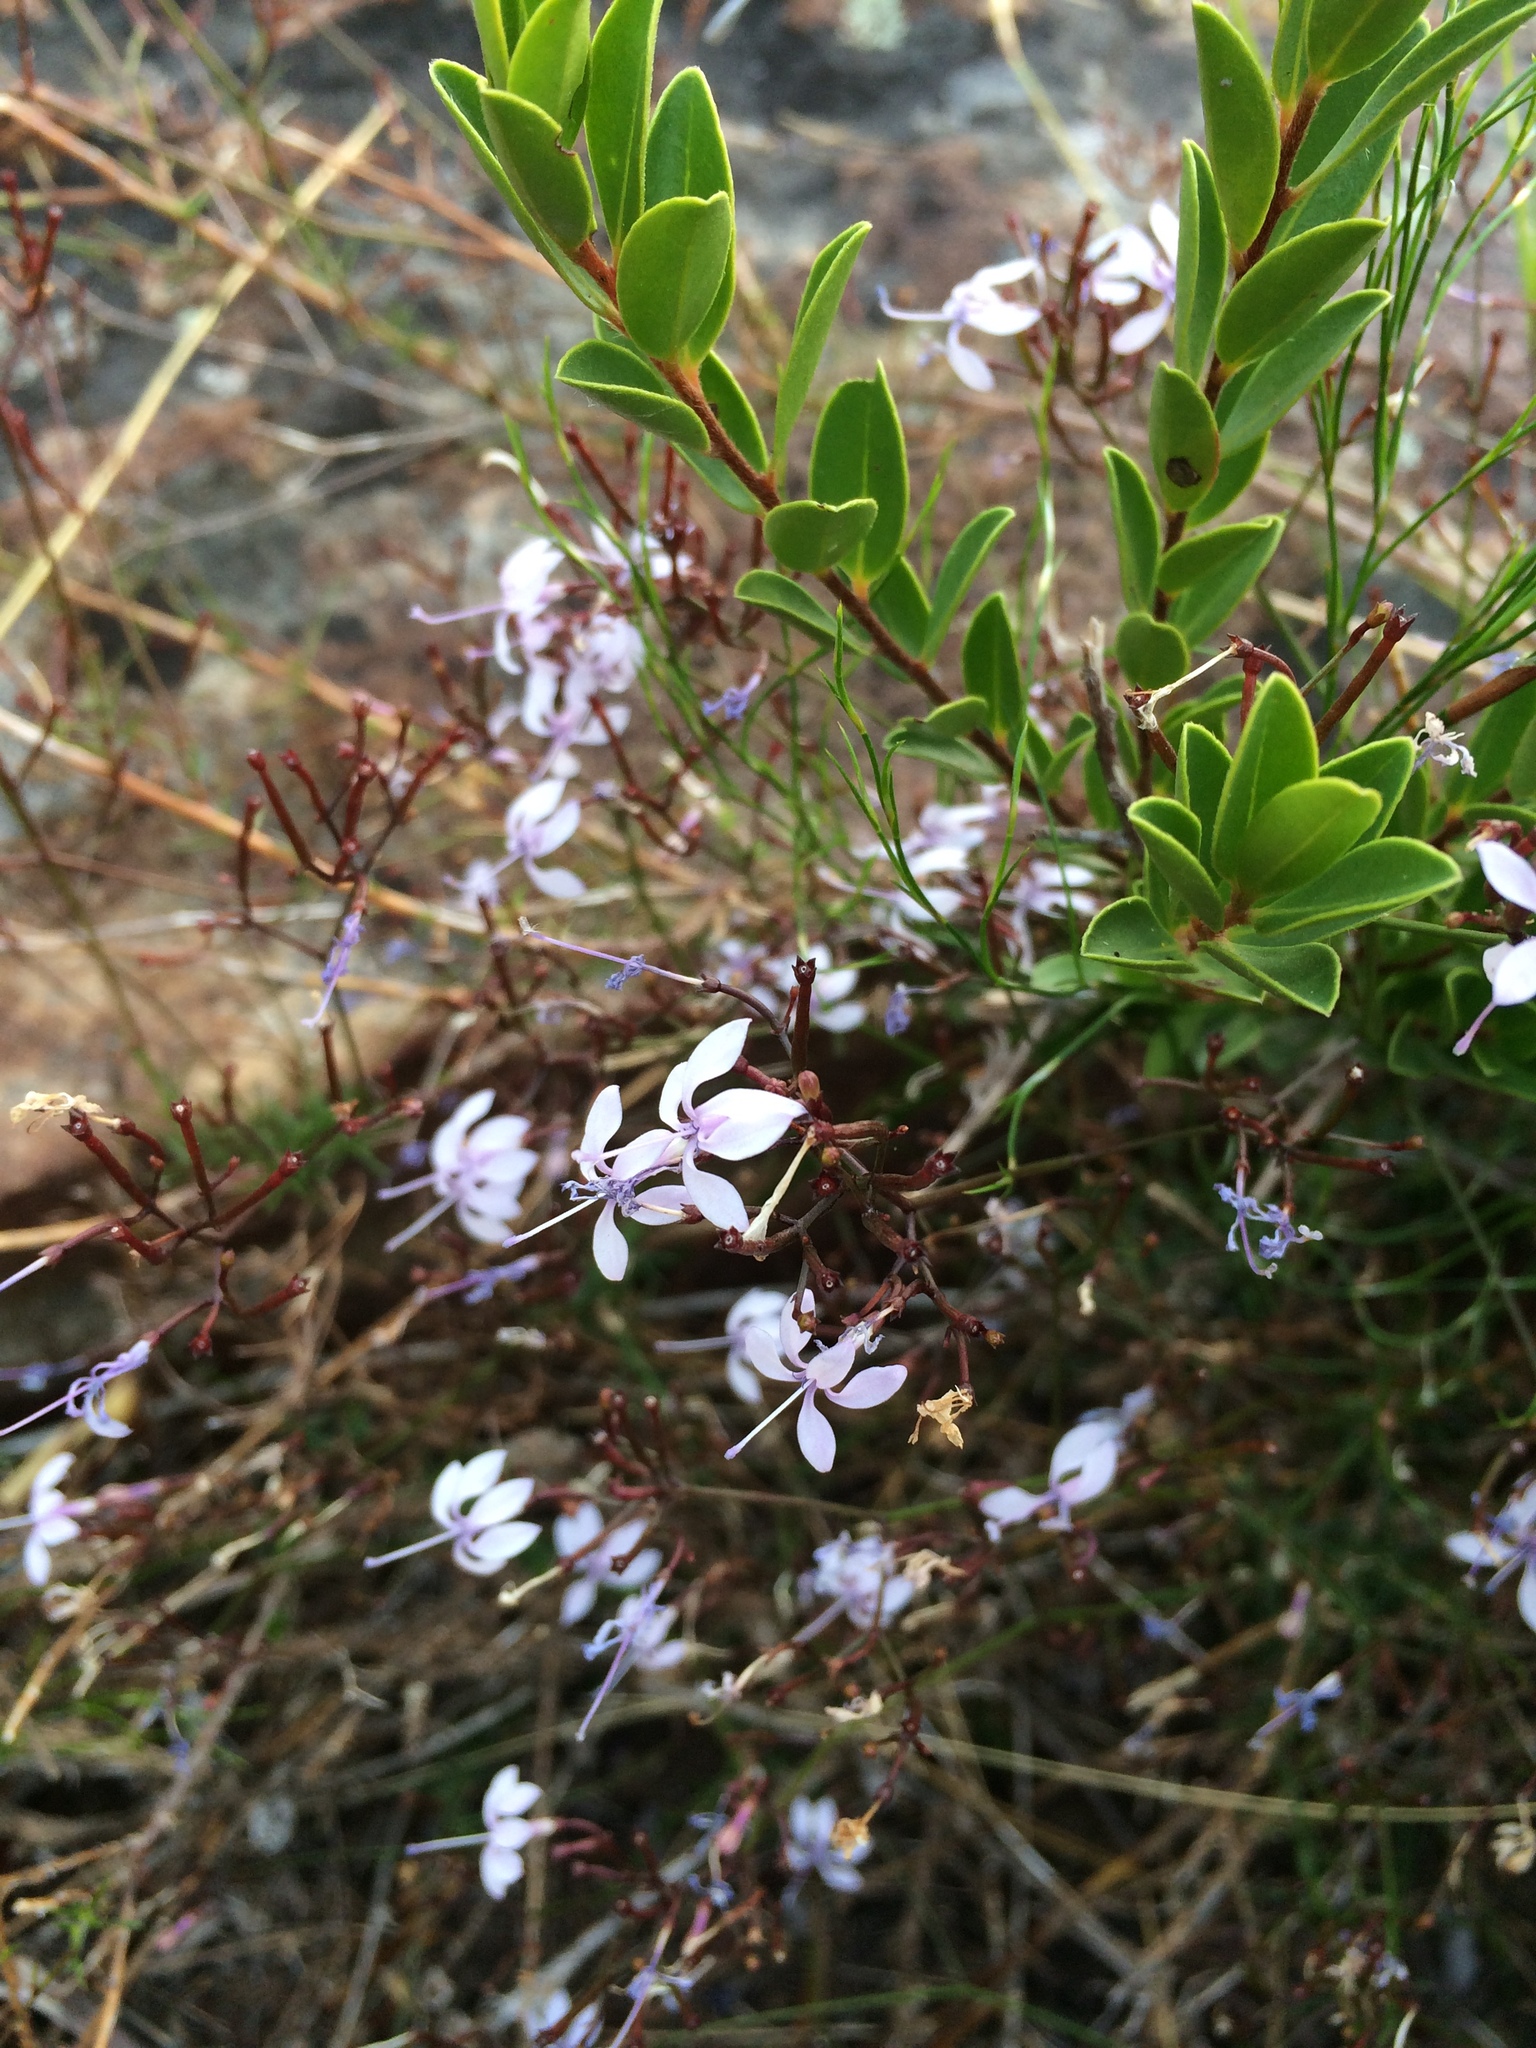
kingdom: Plantae
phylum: Tracheophyta
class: Magnoliopsida
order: Asterales
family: Campanulaceae
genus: Prismatocarpus
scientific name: Prismatocarpus diffusus
